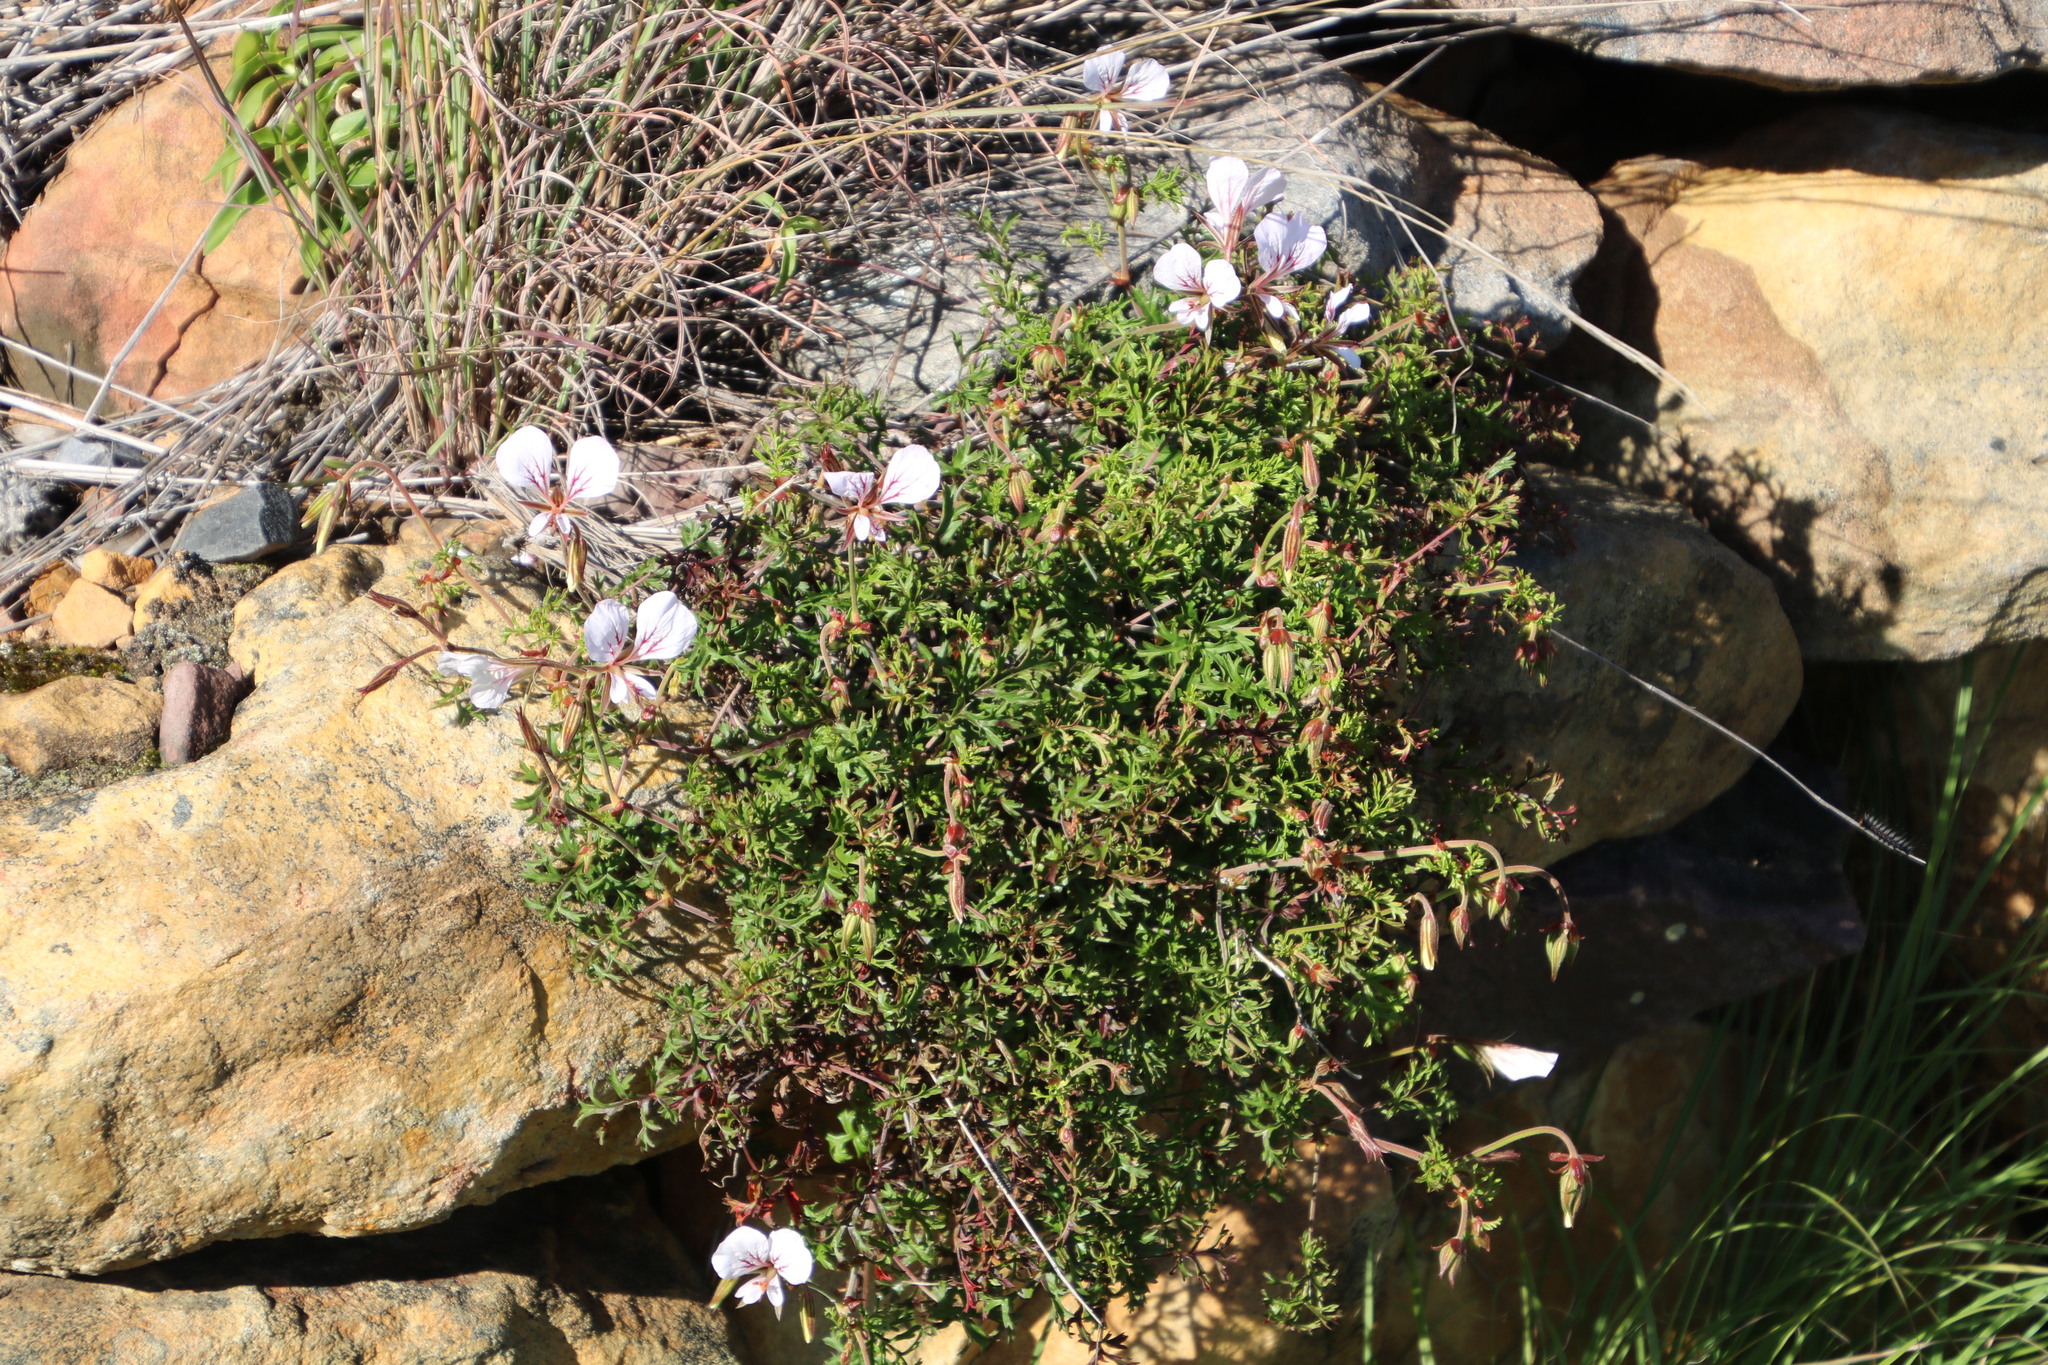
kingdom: Plantae
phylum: Tracheophyta
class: Magnoliopsida
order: Geraniales
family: Geraniaceae
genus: Pelargonium
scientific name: Pelargonium myrrhifolium
